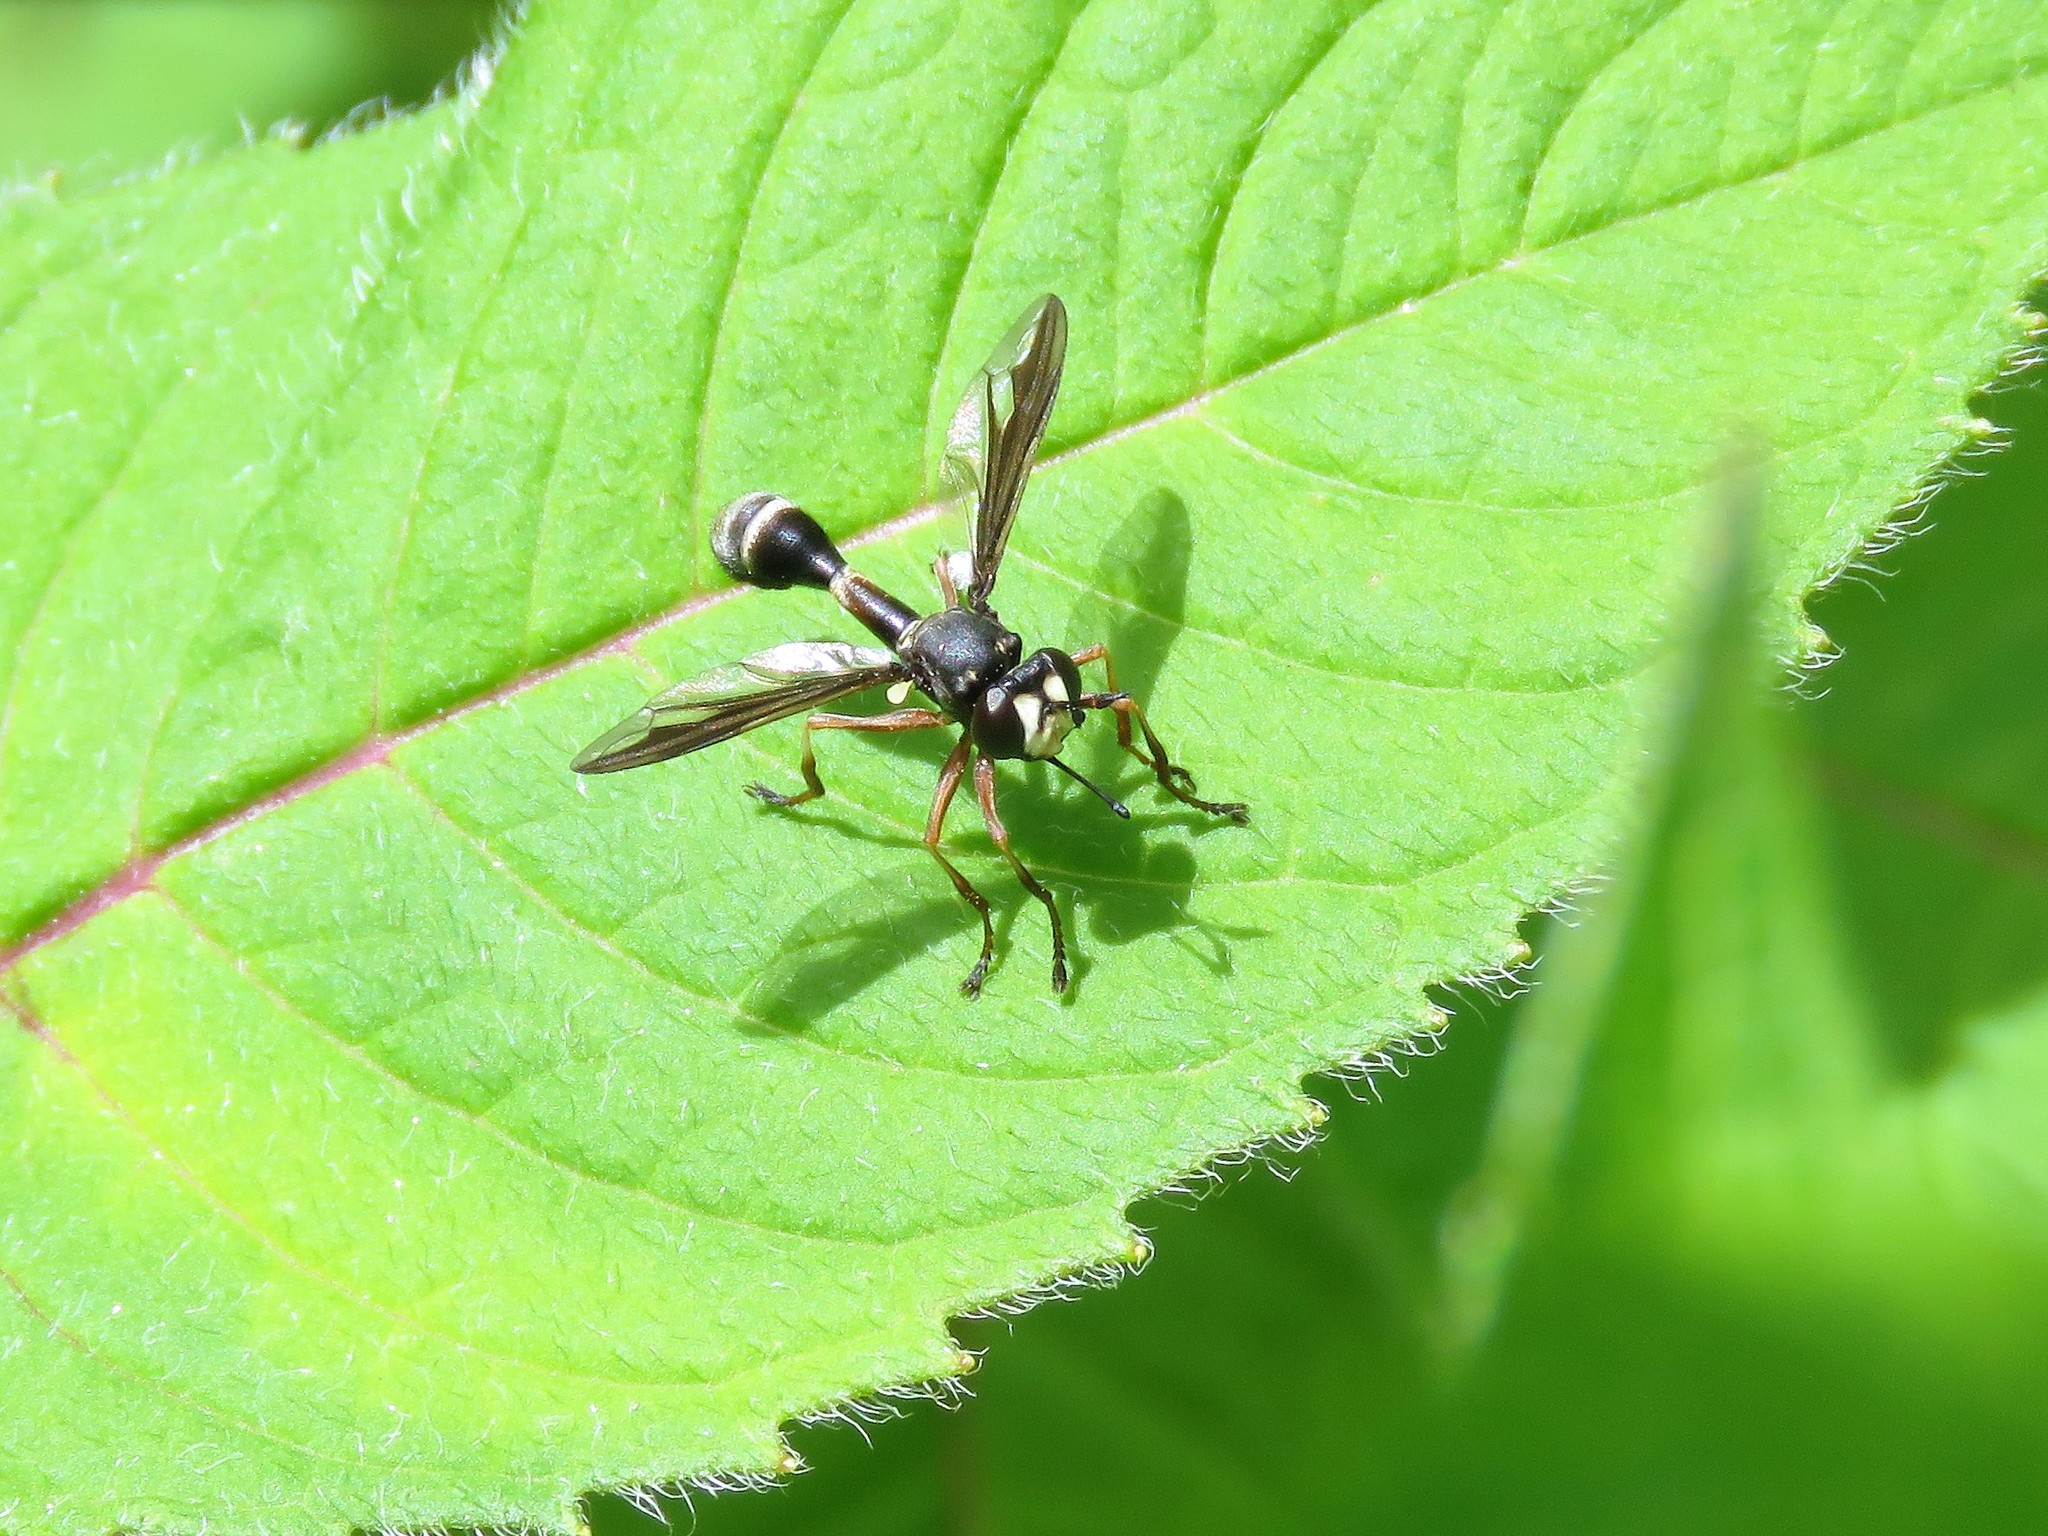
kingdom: Animalia
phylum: Arthropoda
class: Insecta
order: Diptera
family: Conopidae
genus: Physocephala
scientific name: Physocephala furcillata
